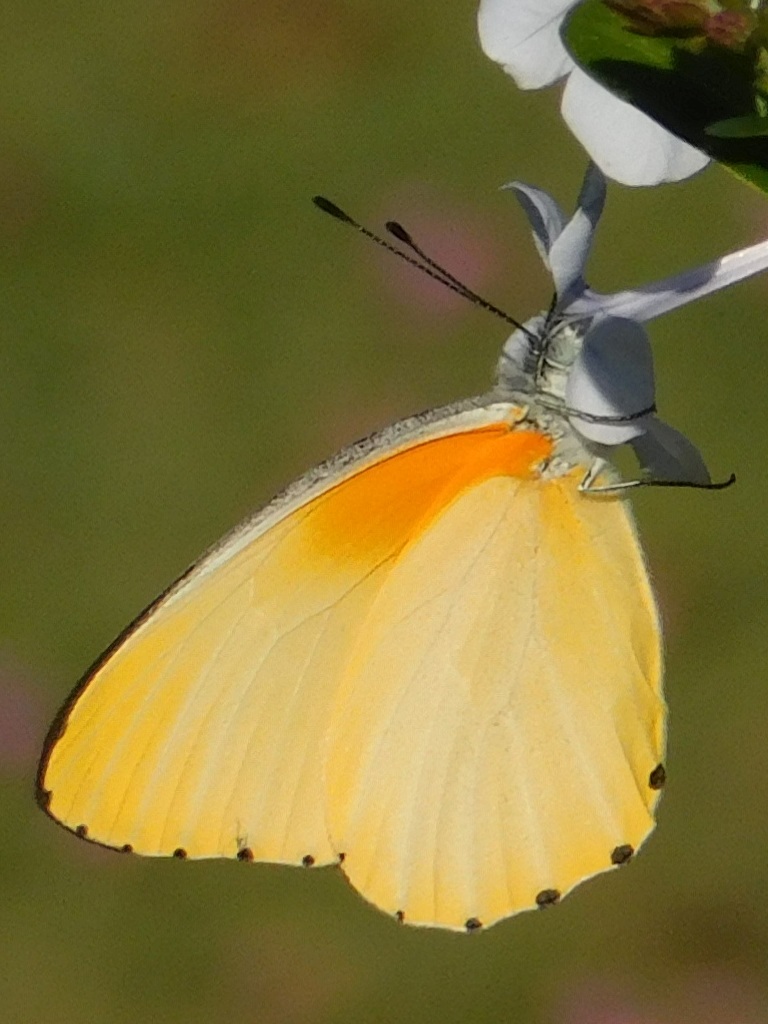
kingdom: Animalia
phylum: Arthropoda
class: Insecta
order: Lepidoptera
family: Pieridae
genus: Mylothris
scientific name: Mylothris agathina
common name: Eastern dotted border
